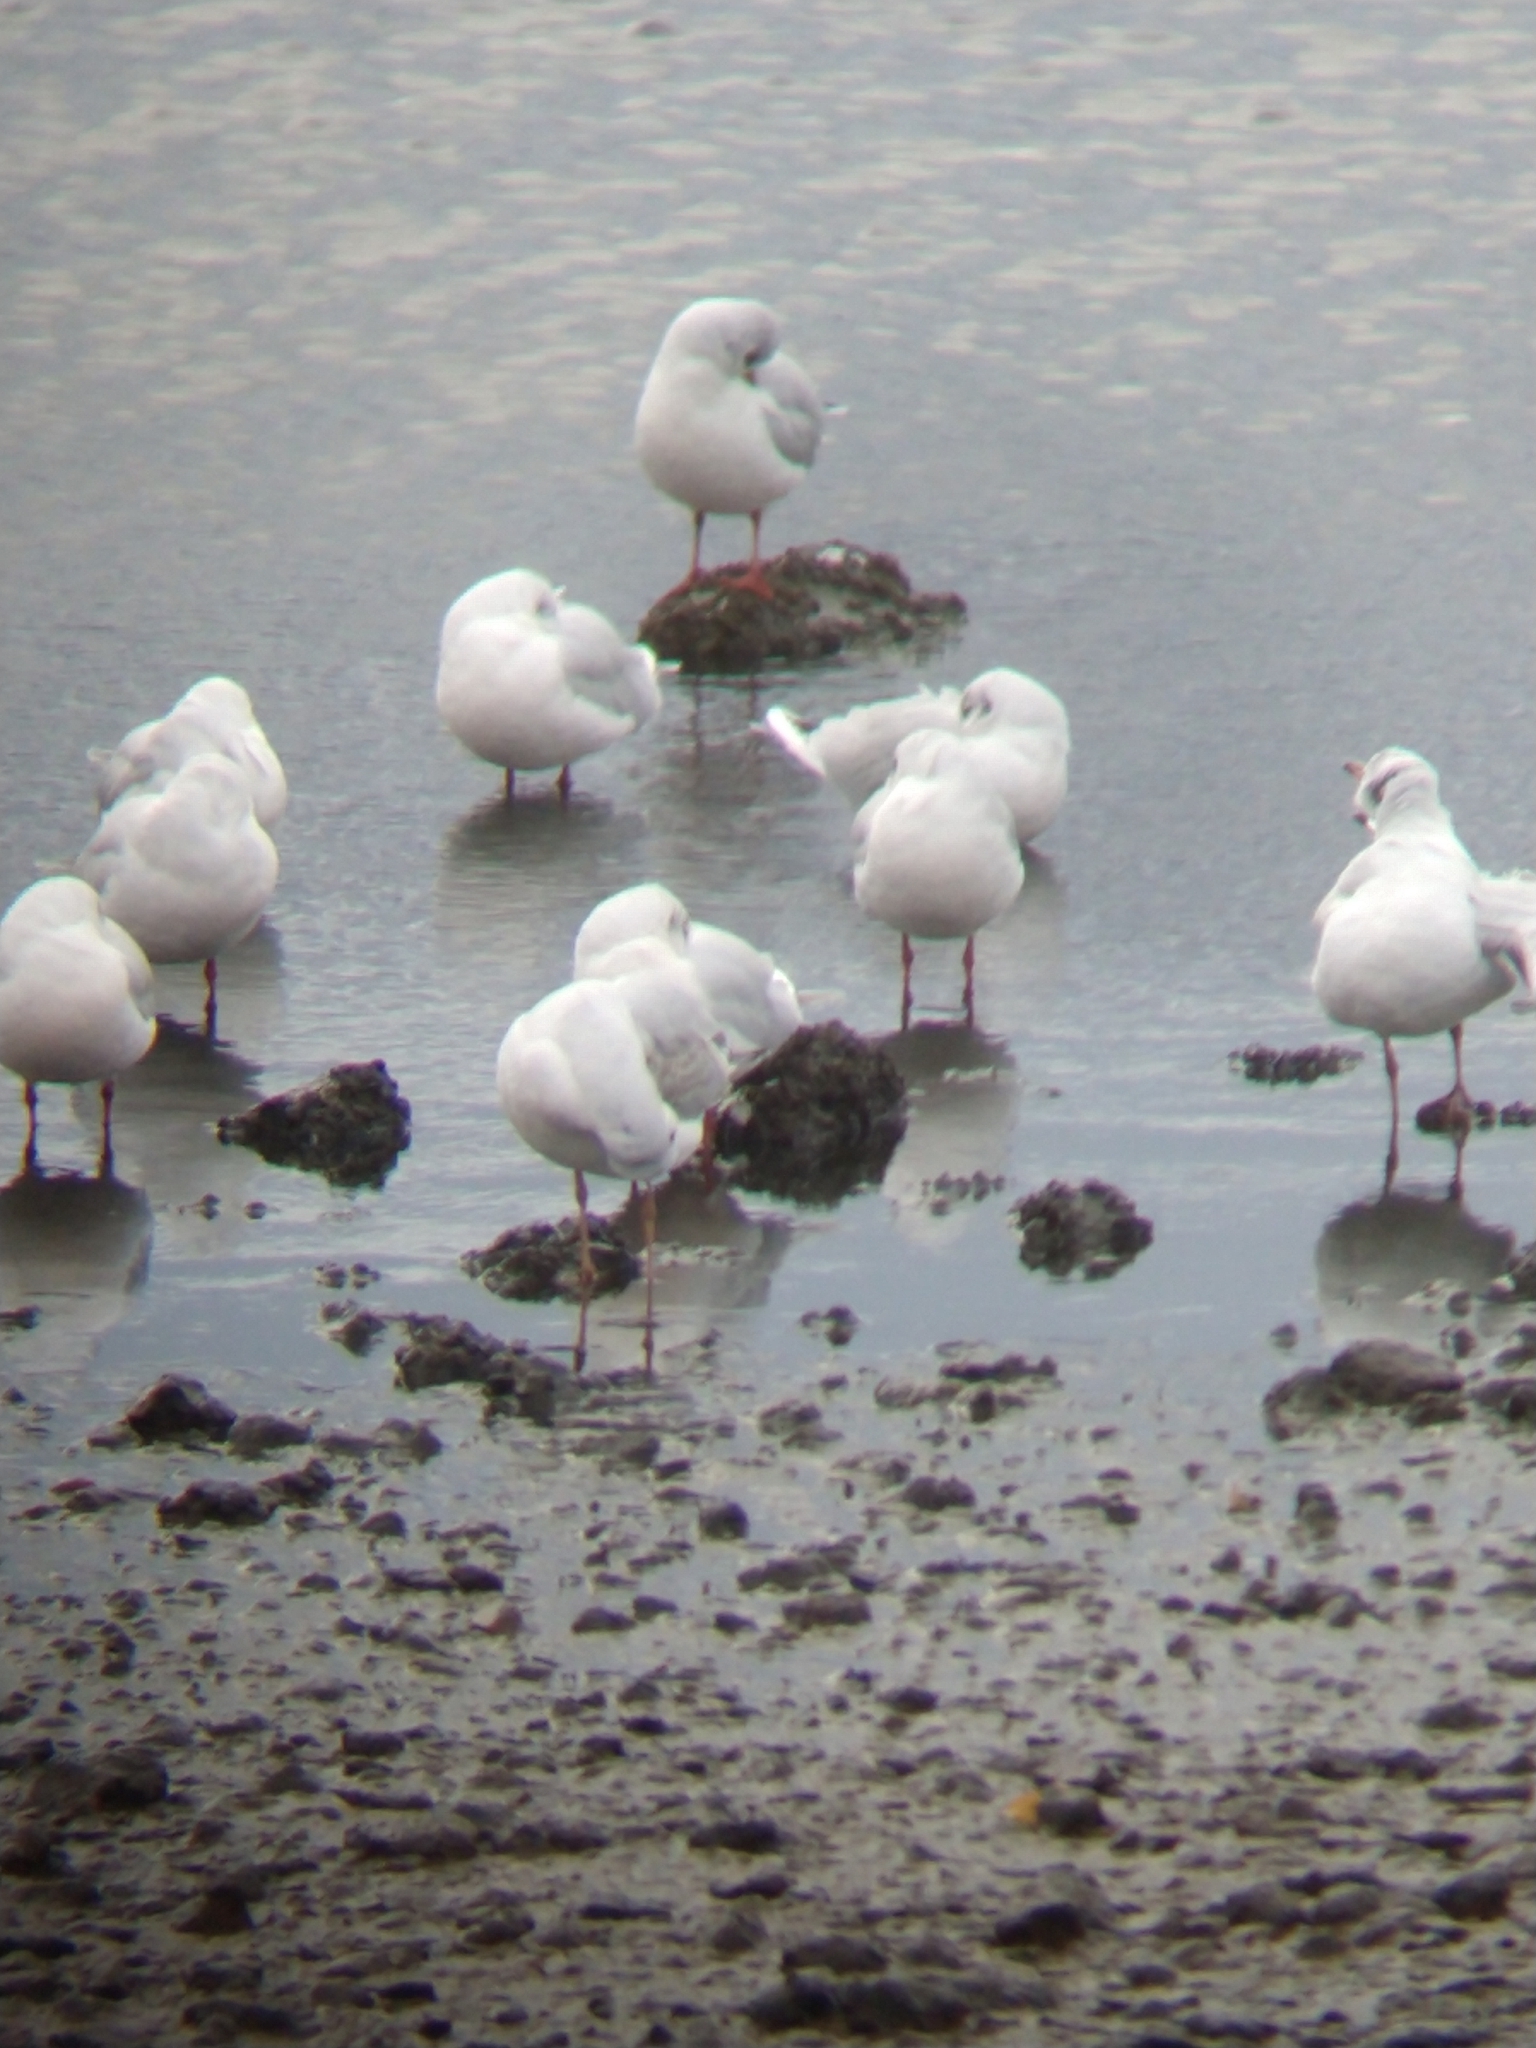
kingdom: Animalia
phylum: Chordata
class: Aves
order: Charadriiformes
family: Laridae
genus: Chroicocephalus
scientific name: Chroicocephalus maculipennis
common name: Brown-hooded gull
